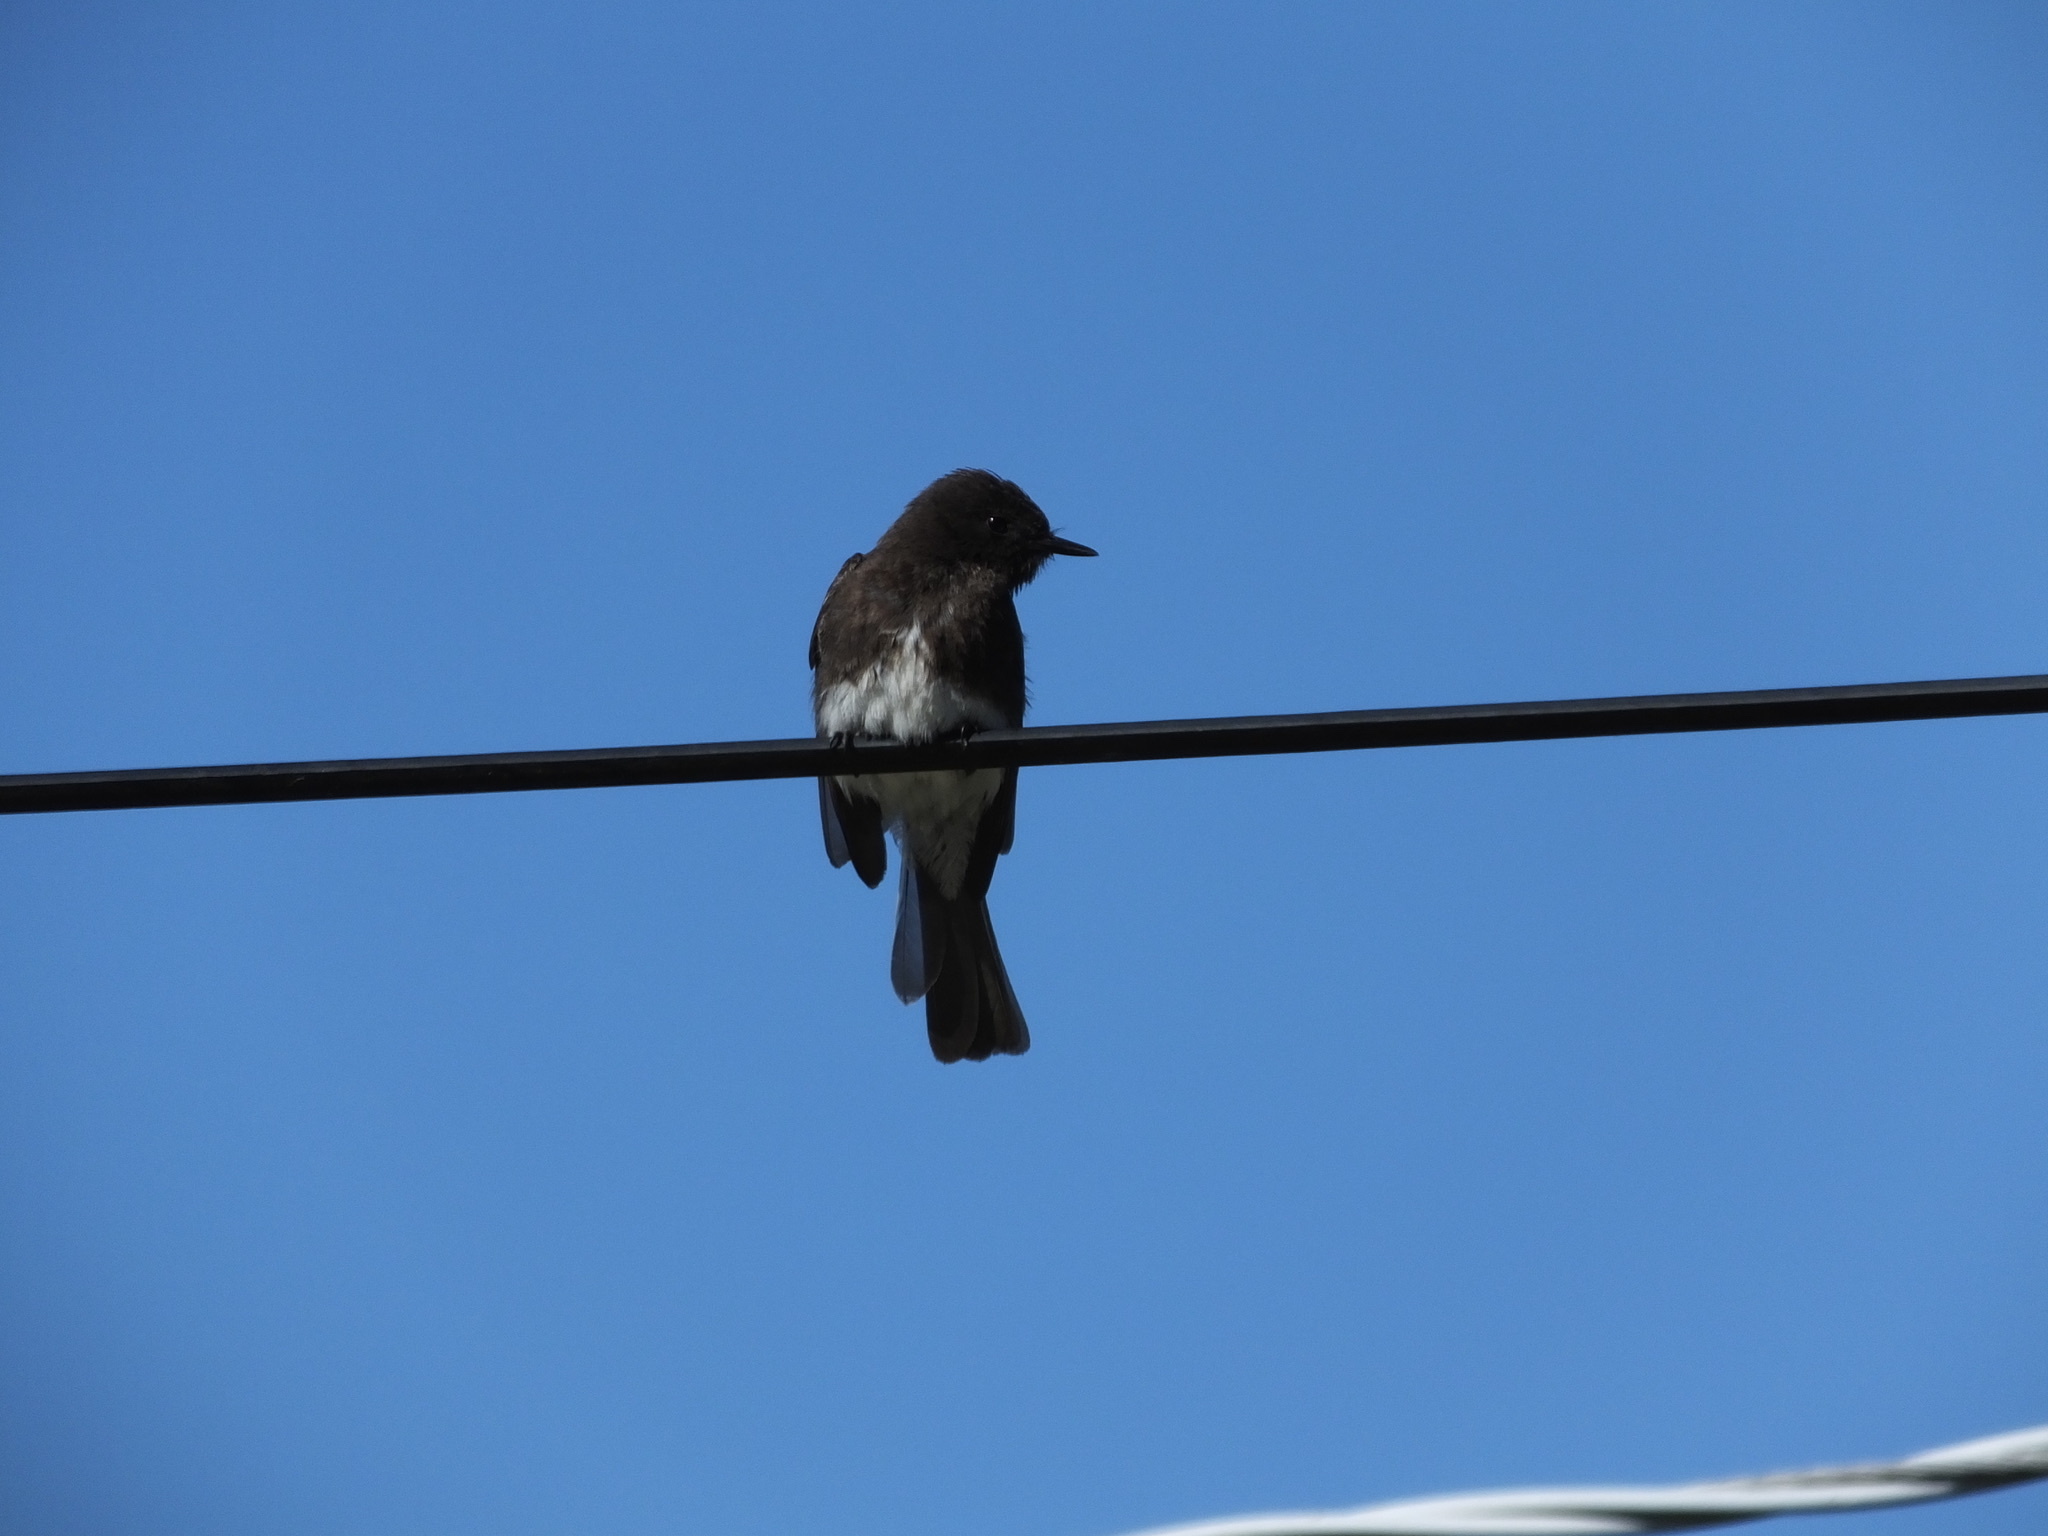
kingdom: Animalia
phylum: Chordata
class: Aves
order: Passeriformes
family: Tyrannidae
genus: Sayornis
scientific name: Sayornis nigricans
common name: Black phoebe
